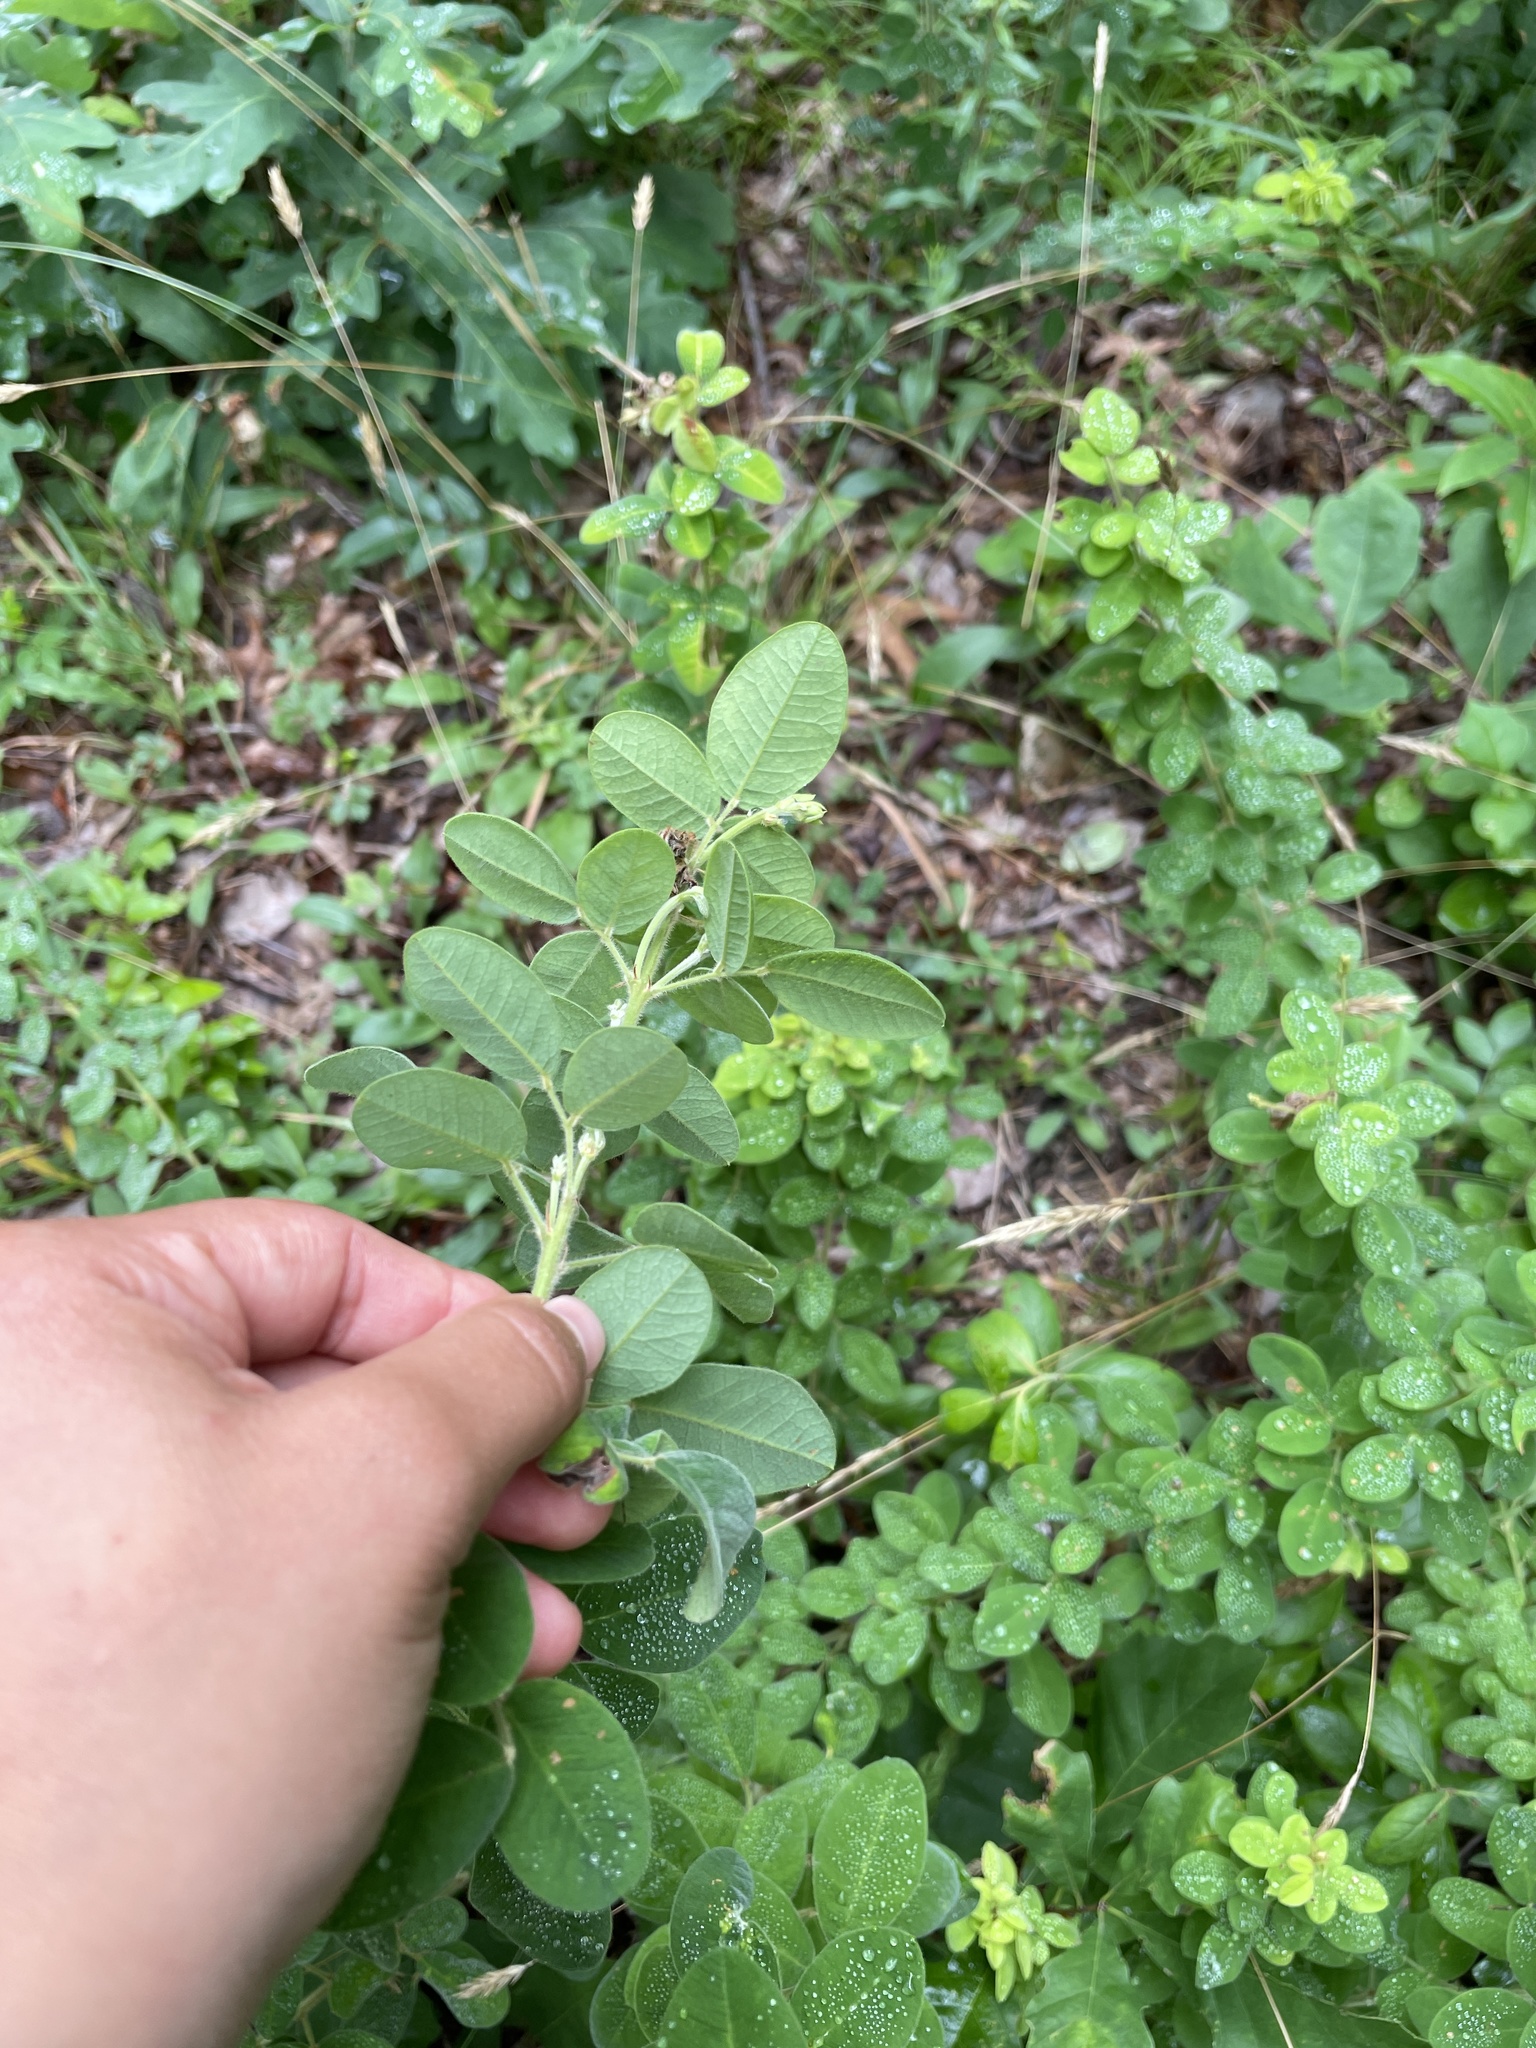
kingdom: Plantae
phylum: Tracheophyta
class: Magnoliopsida
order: Fabales
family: Fabaceae
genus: Lespedeza
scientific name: Lespedeza hirta
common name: Hairy lespedeza
